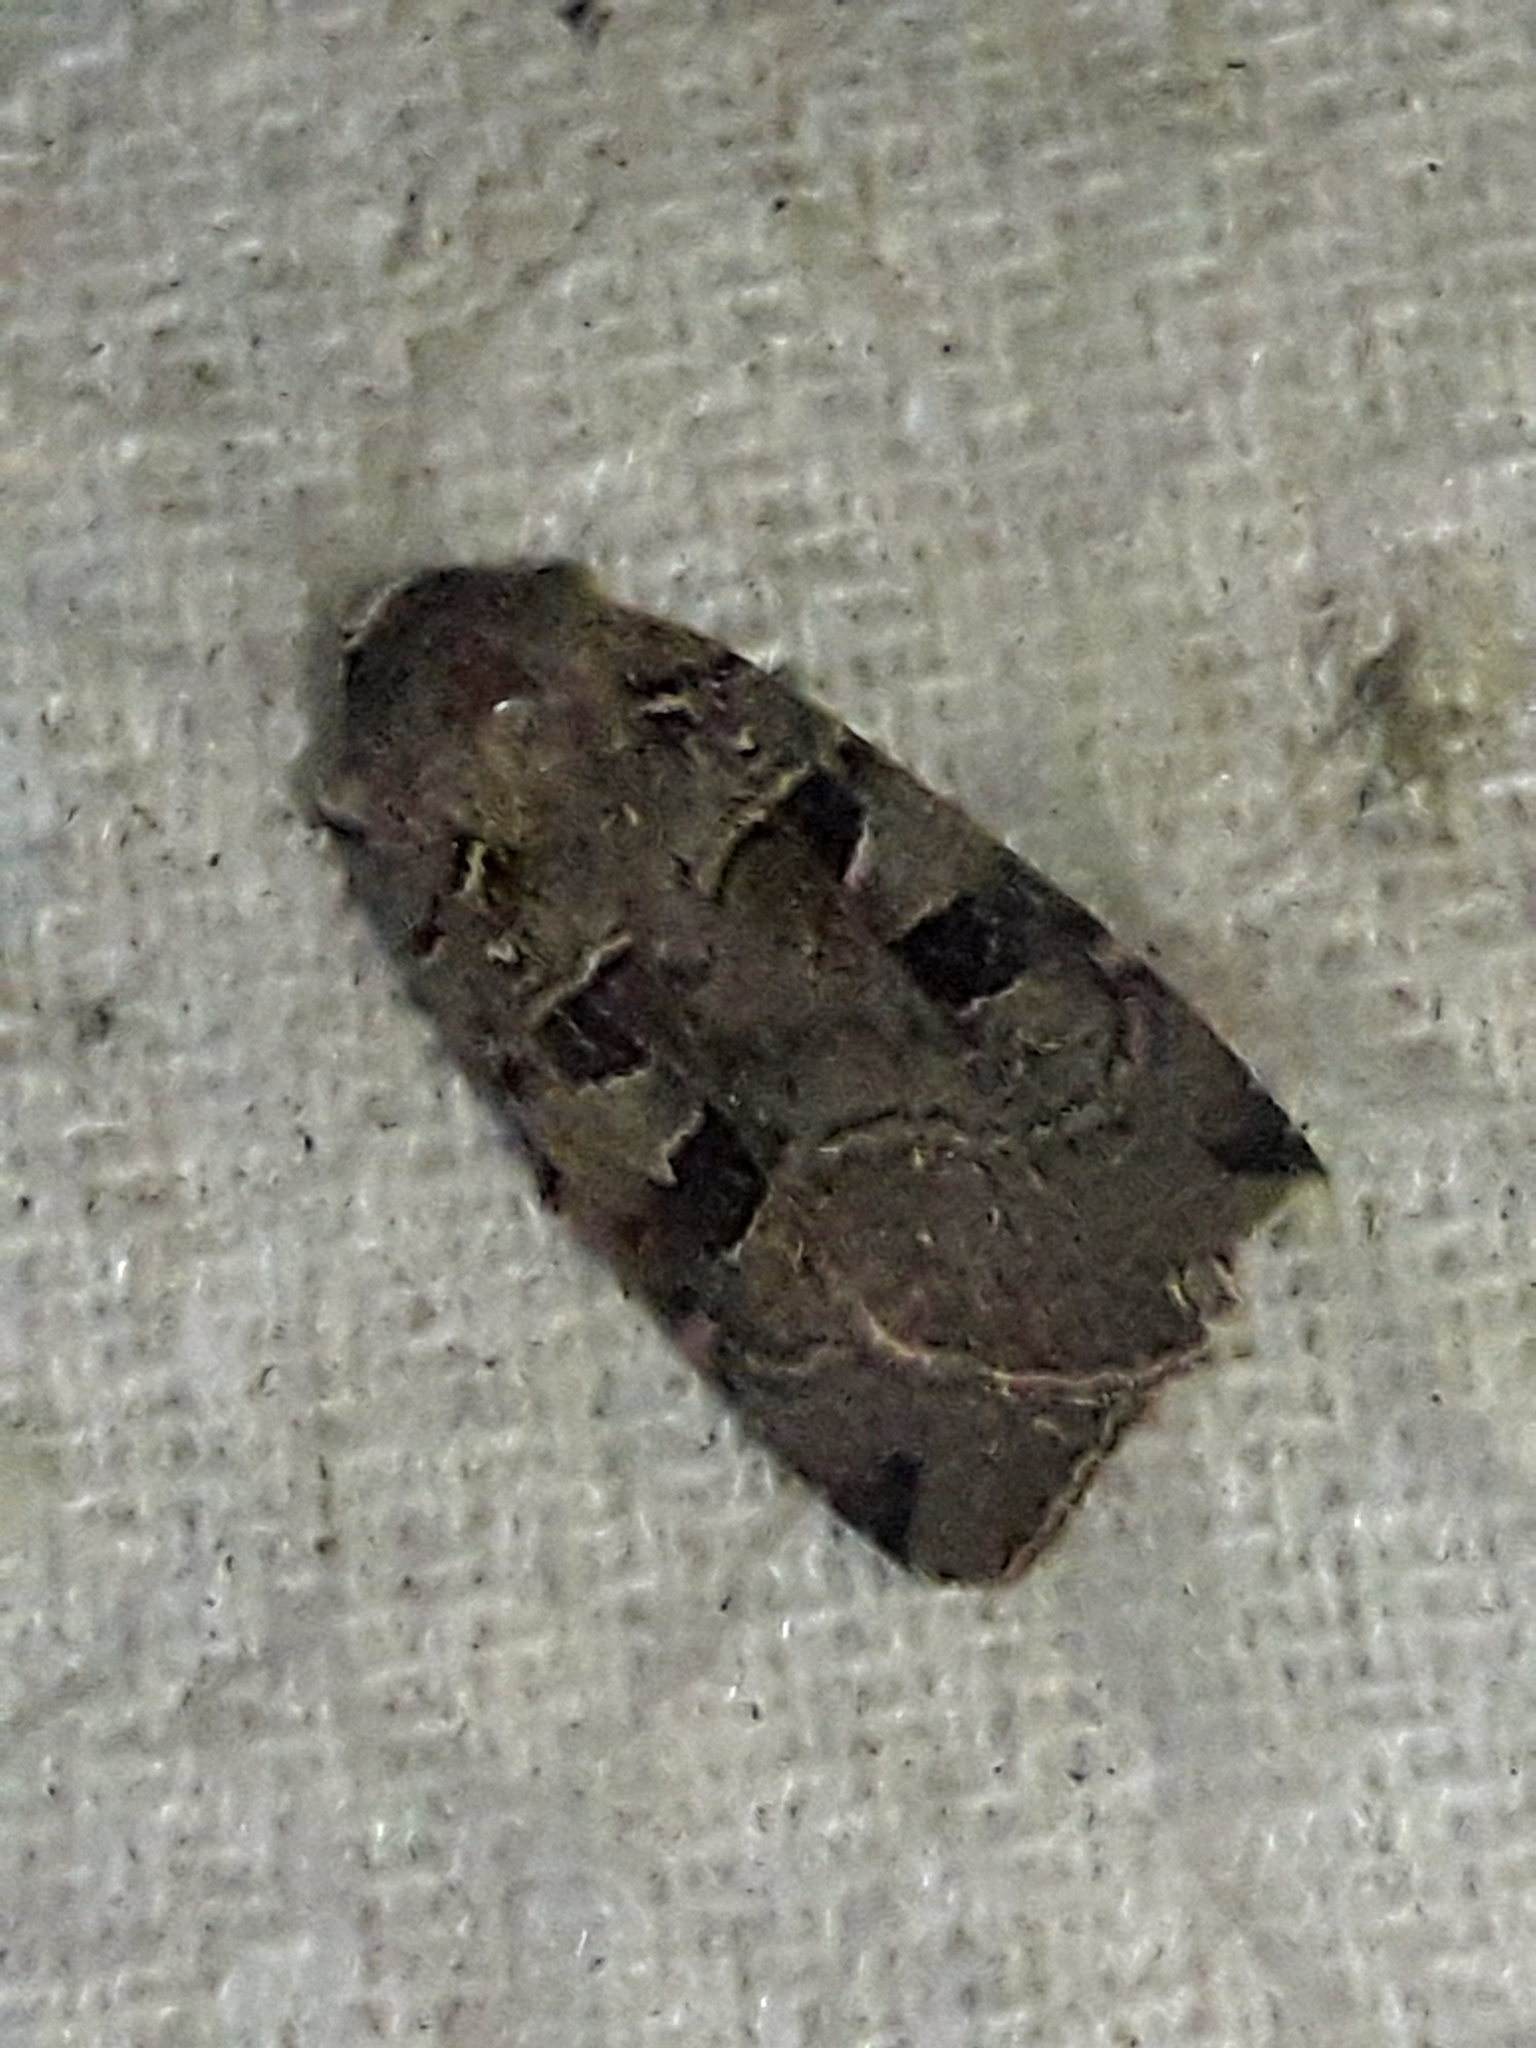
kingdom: Animalia
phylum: Arthropoda
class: Insecta
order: Lepidoptera
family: Noctuidae
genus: Xestia
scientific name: Xestia triangulum
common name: Double square-spot
